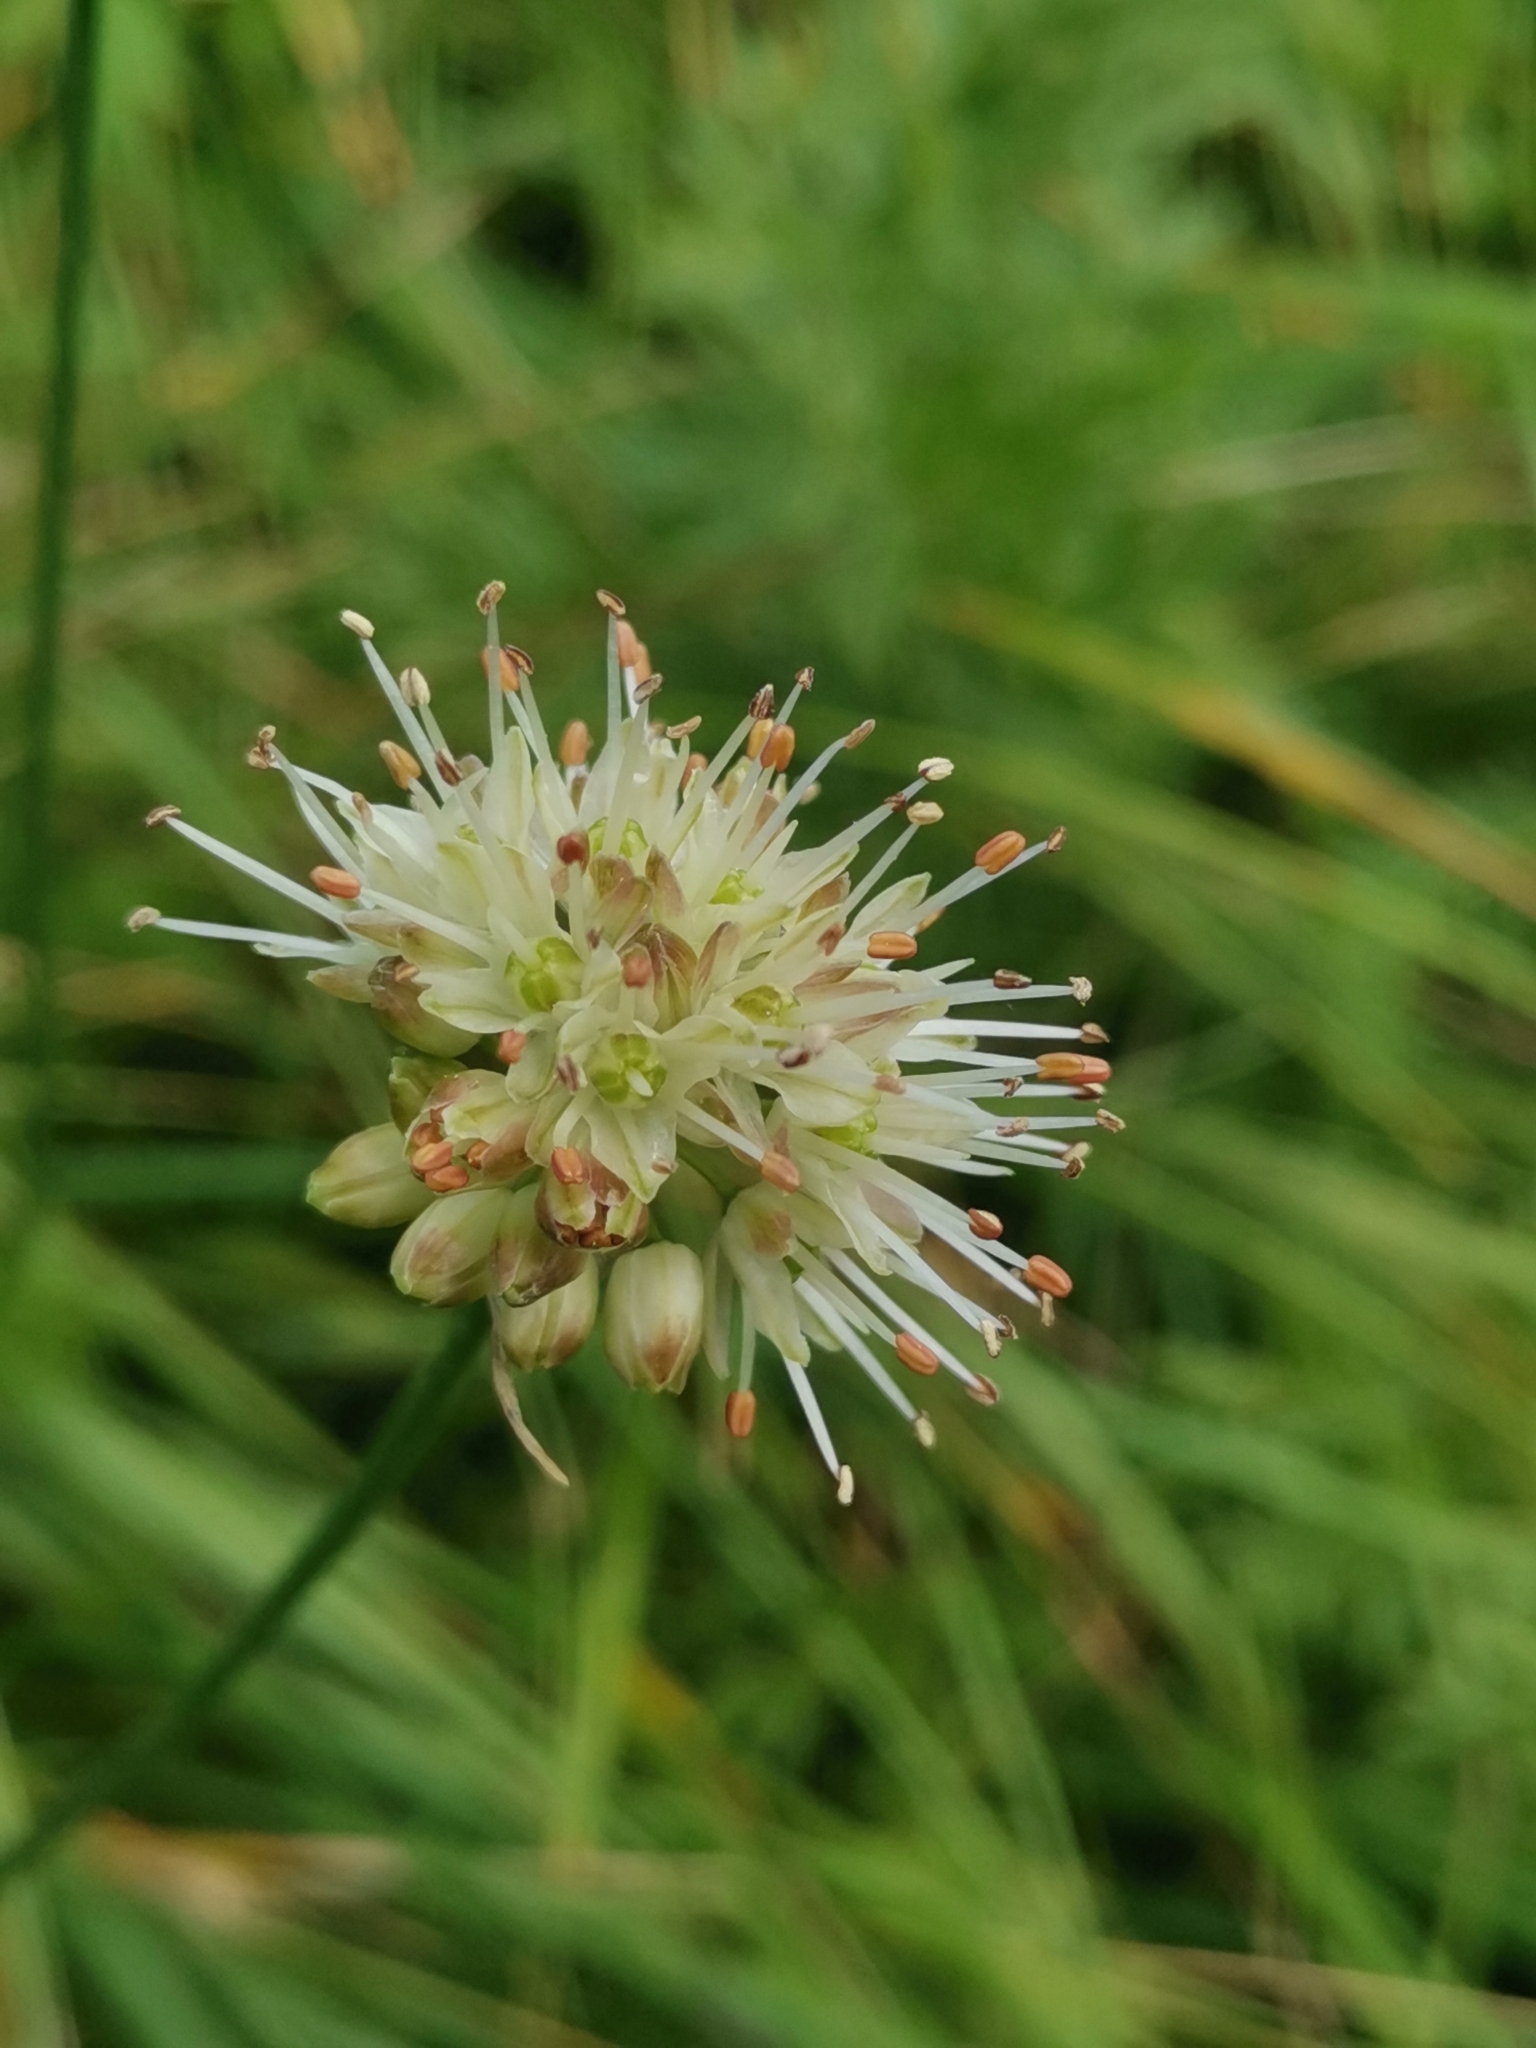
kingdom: Plantae
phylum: Tracheophyta
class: Liliopsida
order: Asparagales
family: Amaryllidaceae
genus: Allium
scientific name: Allium ericetorum
